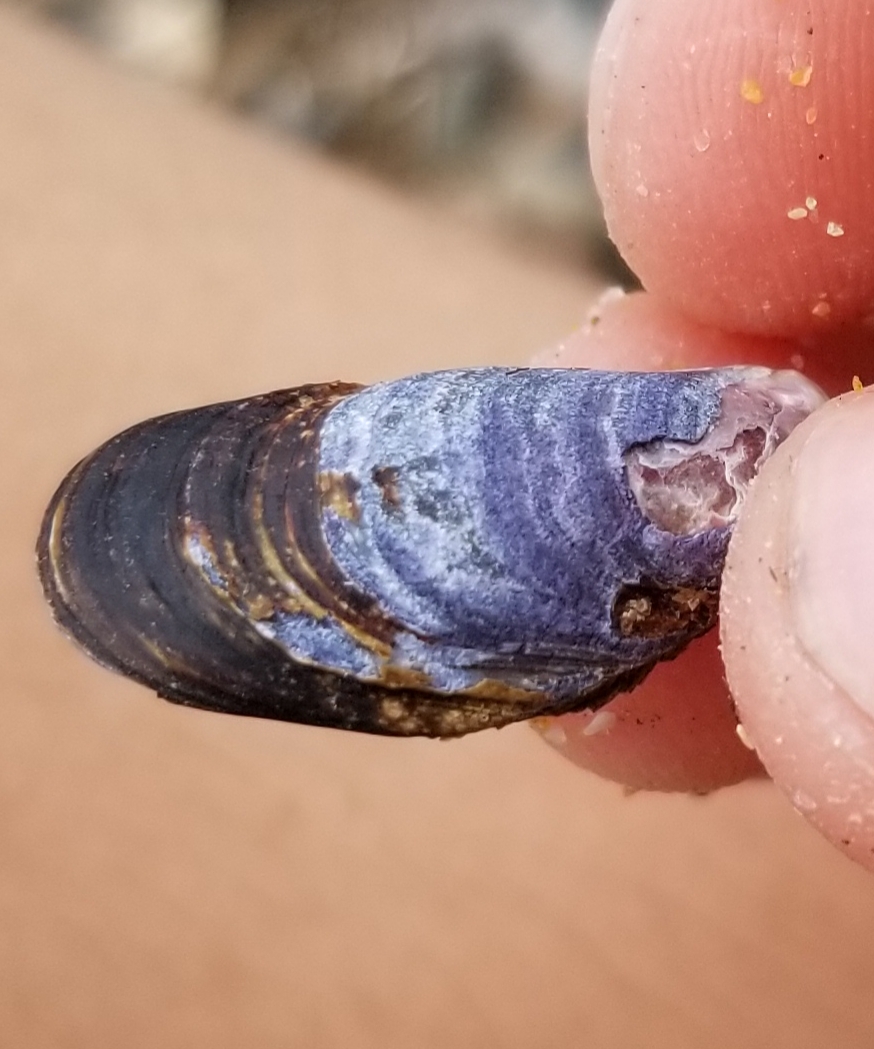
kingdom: Animalia
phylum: Mollusca
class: Bivalvia
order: Mytilida
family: Mytilidae
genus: Mytilus
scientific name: Mytilus californianus
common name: California mussel
